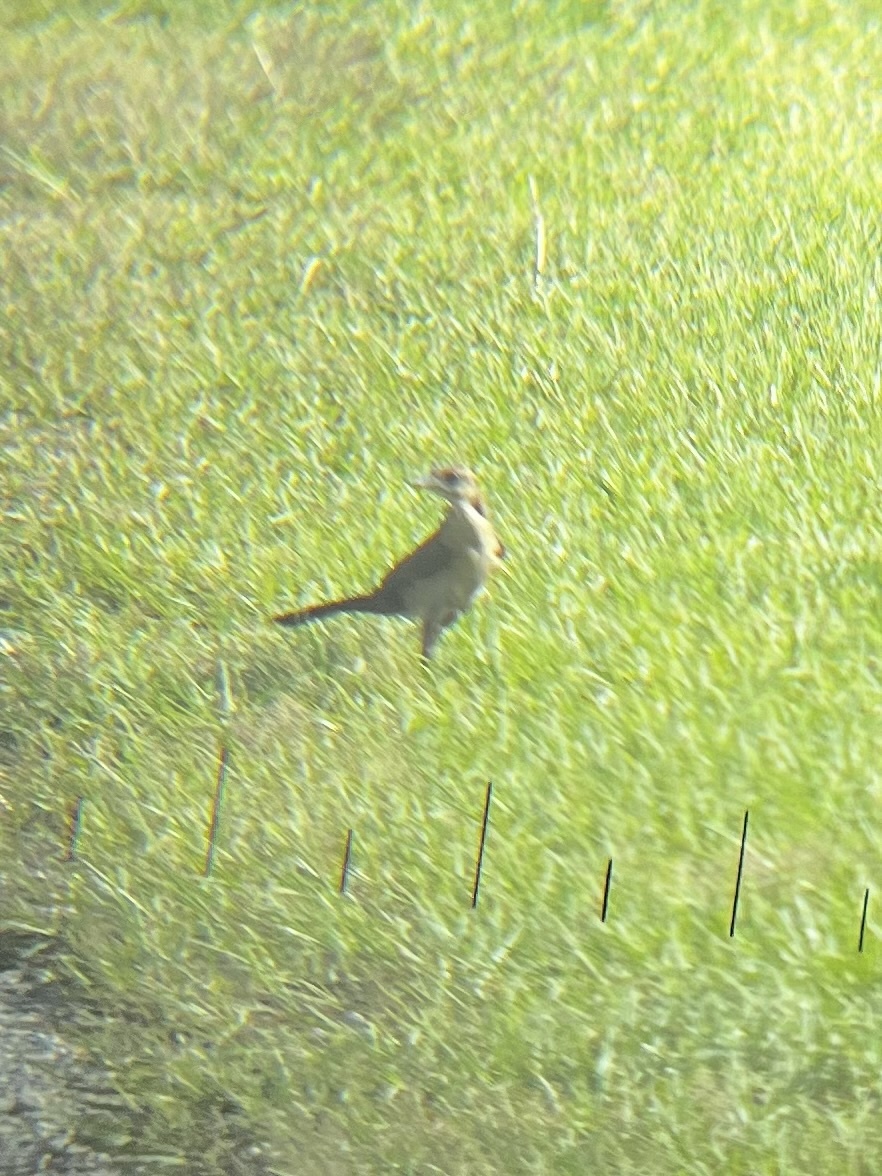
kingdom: Animalia
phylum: Chordata
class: Aves
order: Passeriformes
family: Icteridae
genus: Quiscalus
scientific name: Quiscalus major
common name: Boat-tailed grackle
